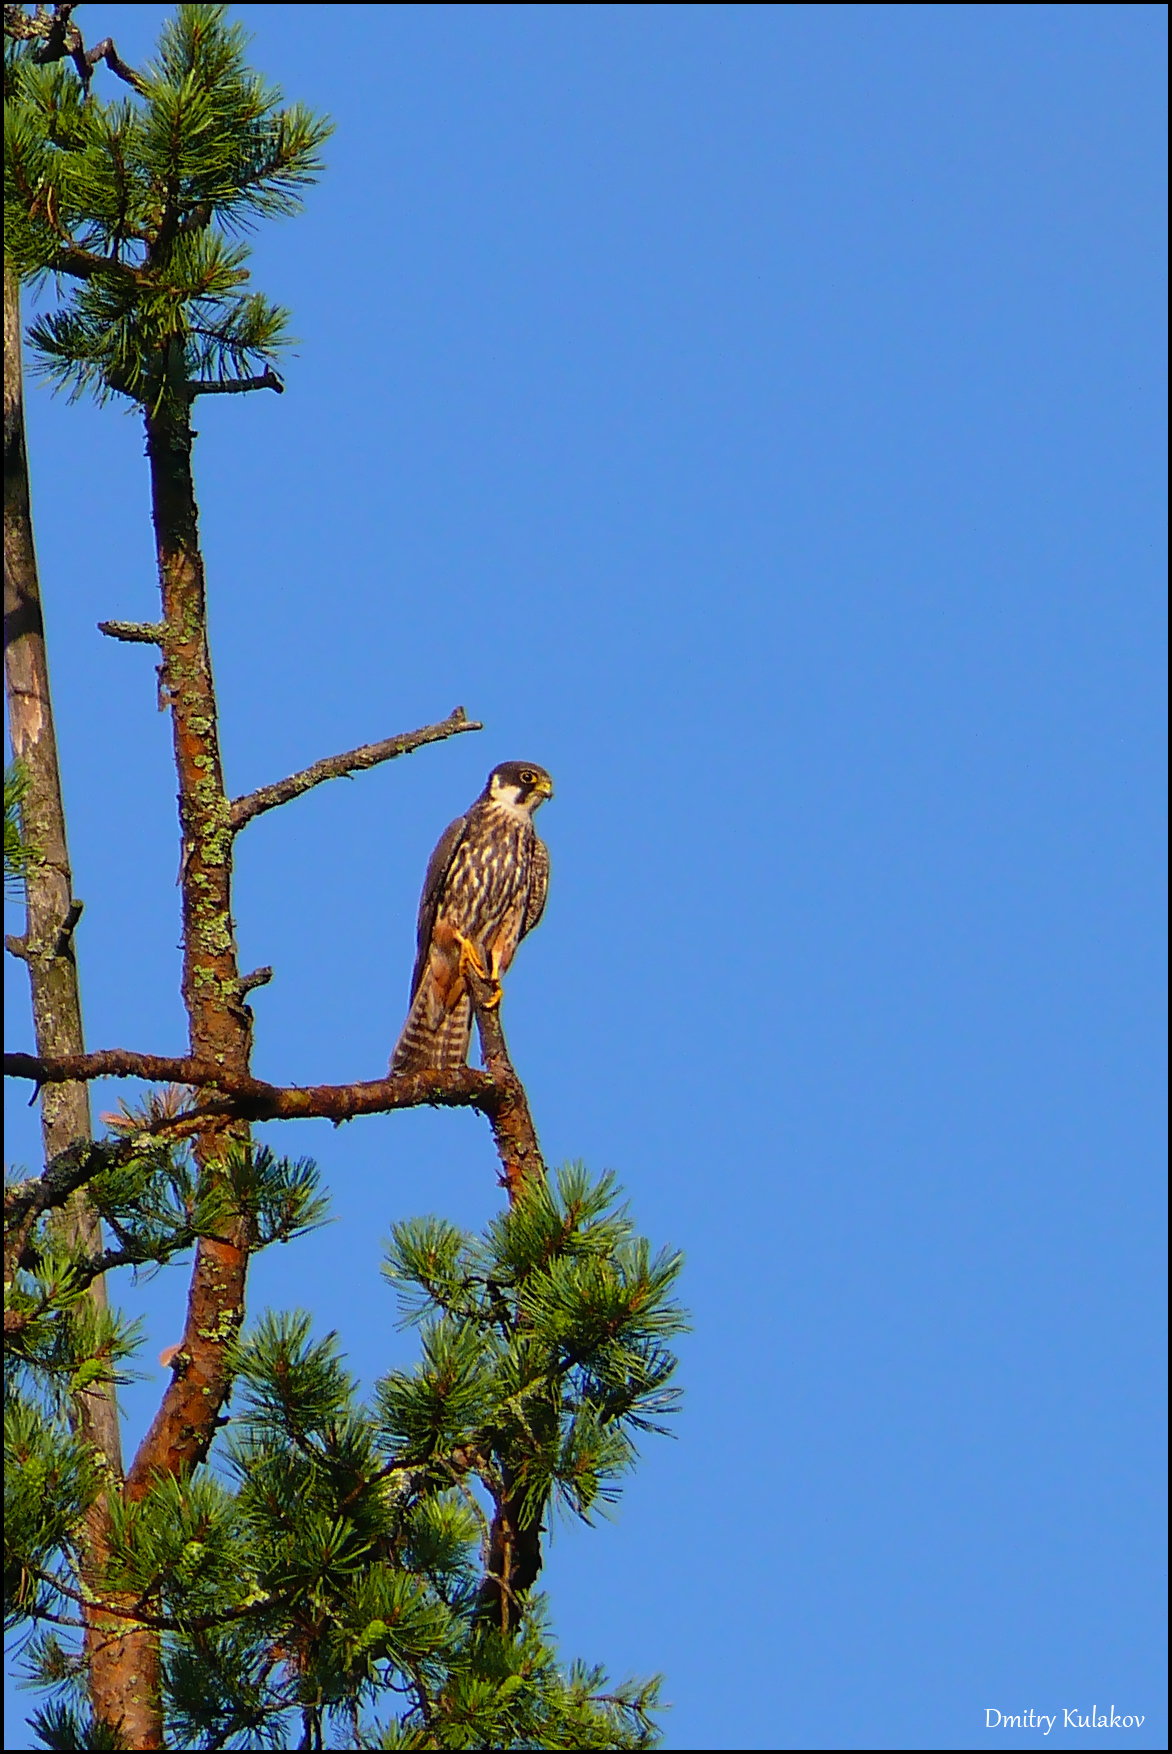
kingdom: Animalia
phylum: Chordata
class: Aves
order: Falconiformes
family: Falconidae
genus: Falco
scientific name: Falco subbuteo
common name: Eurasian hobby
